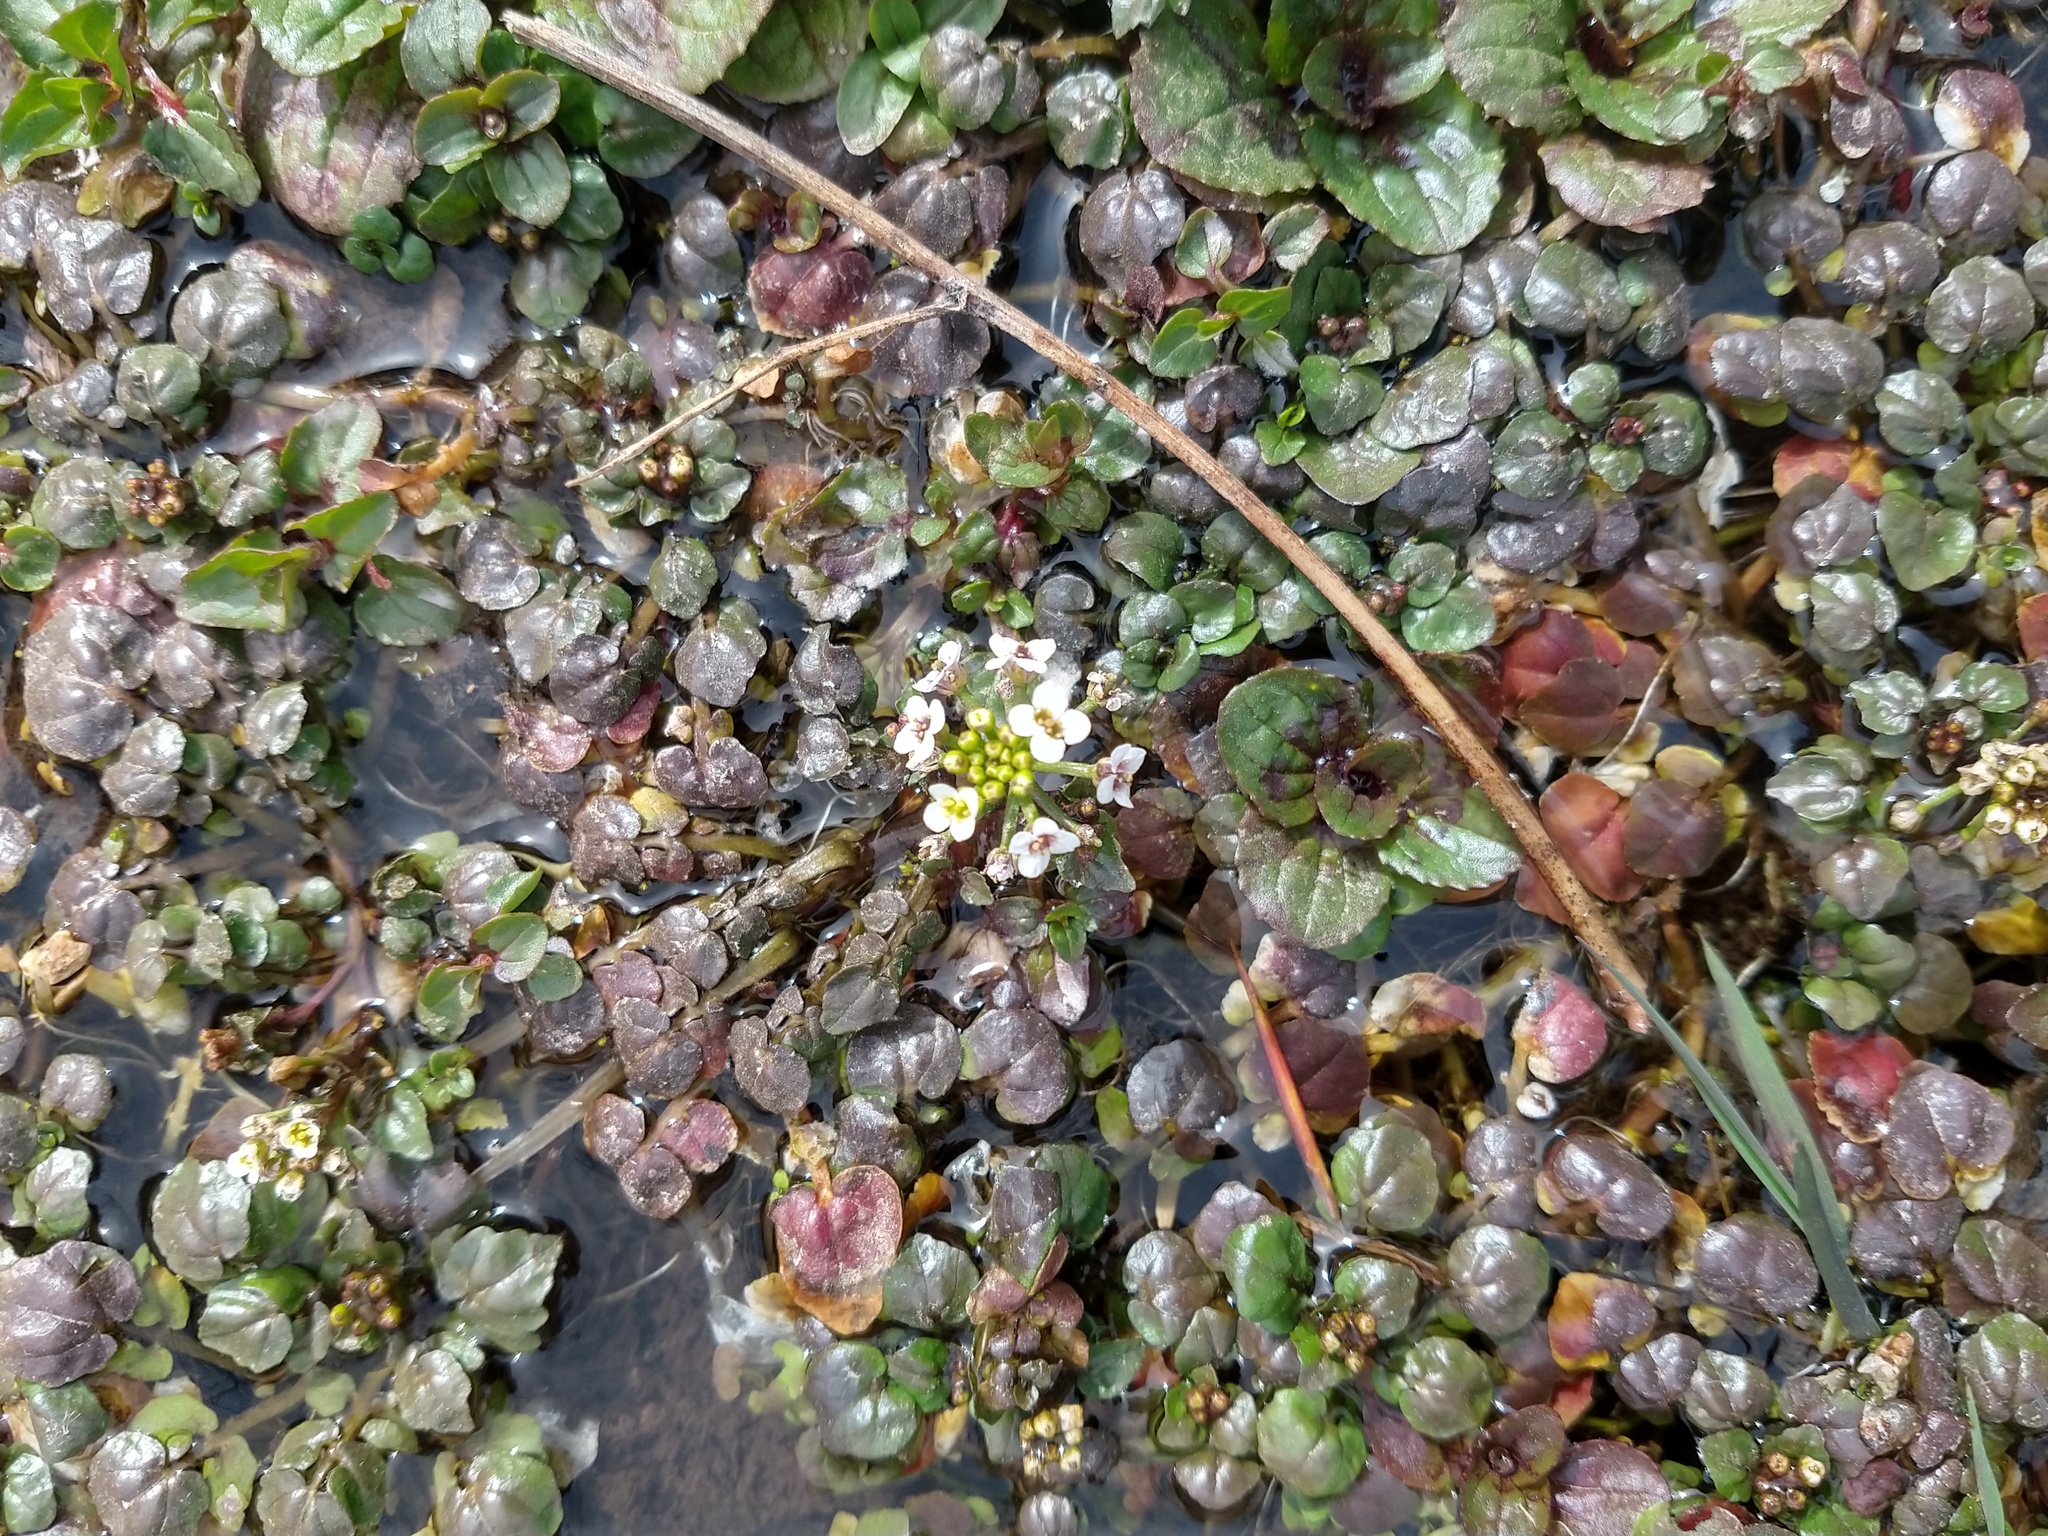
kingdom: Plantae
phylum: Tracheophyta
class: Magnoliopsida
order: Brassicales
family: Brassicaceae
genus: Nasturtium
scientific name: Nasturtium officinale
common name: Watercress
